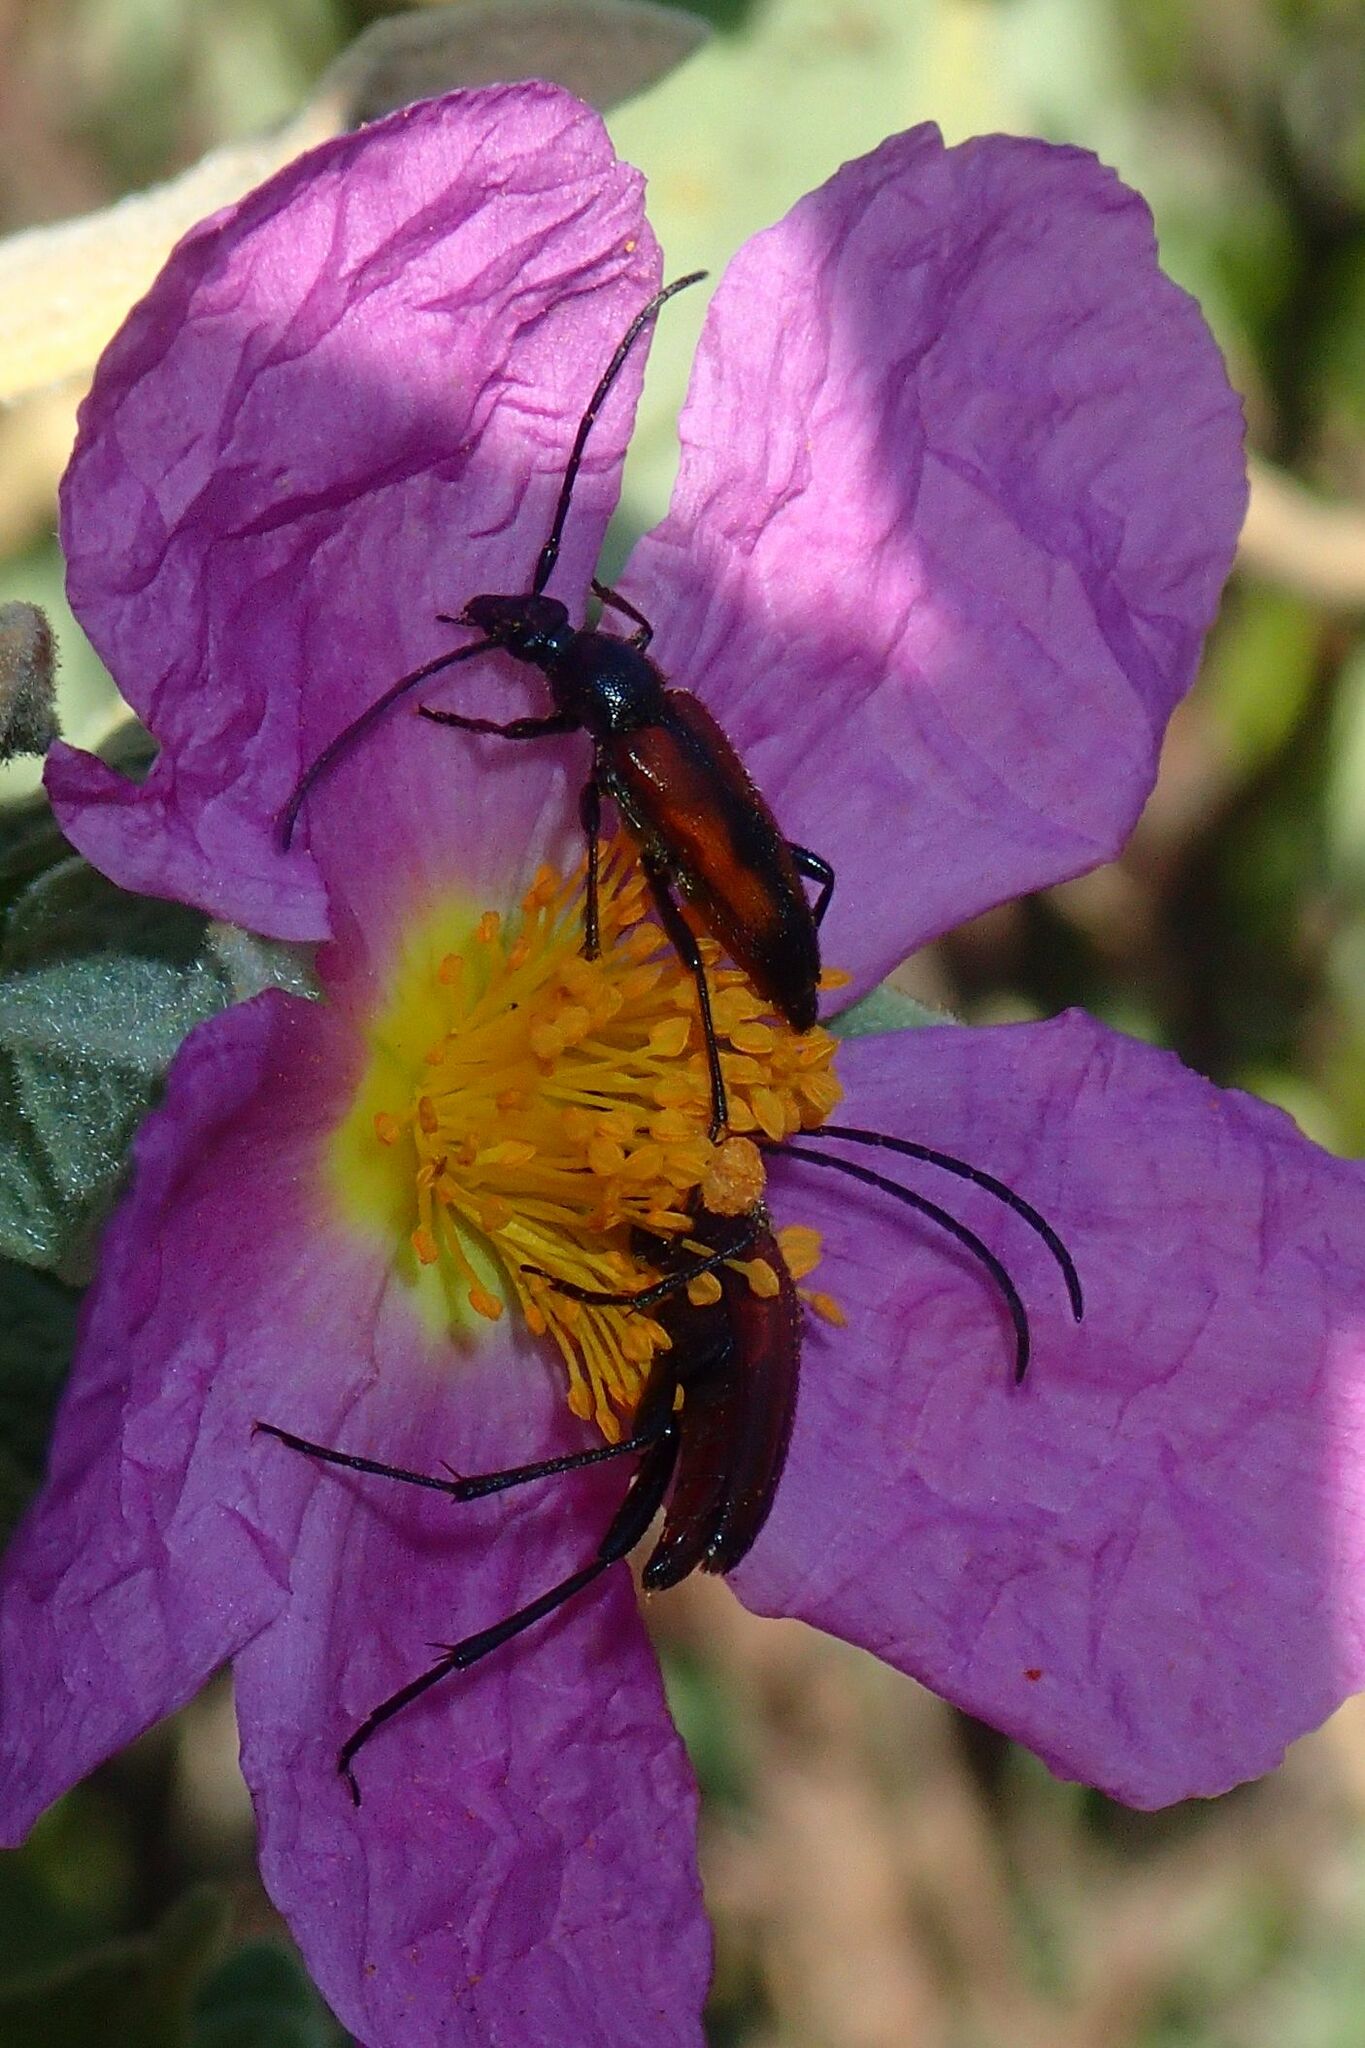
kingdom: Animalia
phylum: Arthropoda
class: Insecta
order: Coleoptera
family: Cerambycidae
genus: Stenurella
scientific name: Stenurella bifasciata
